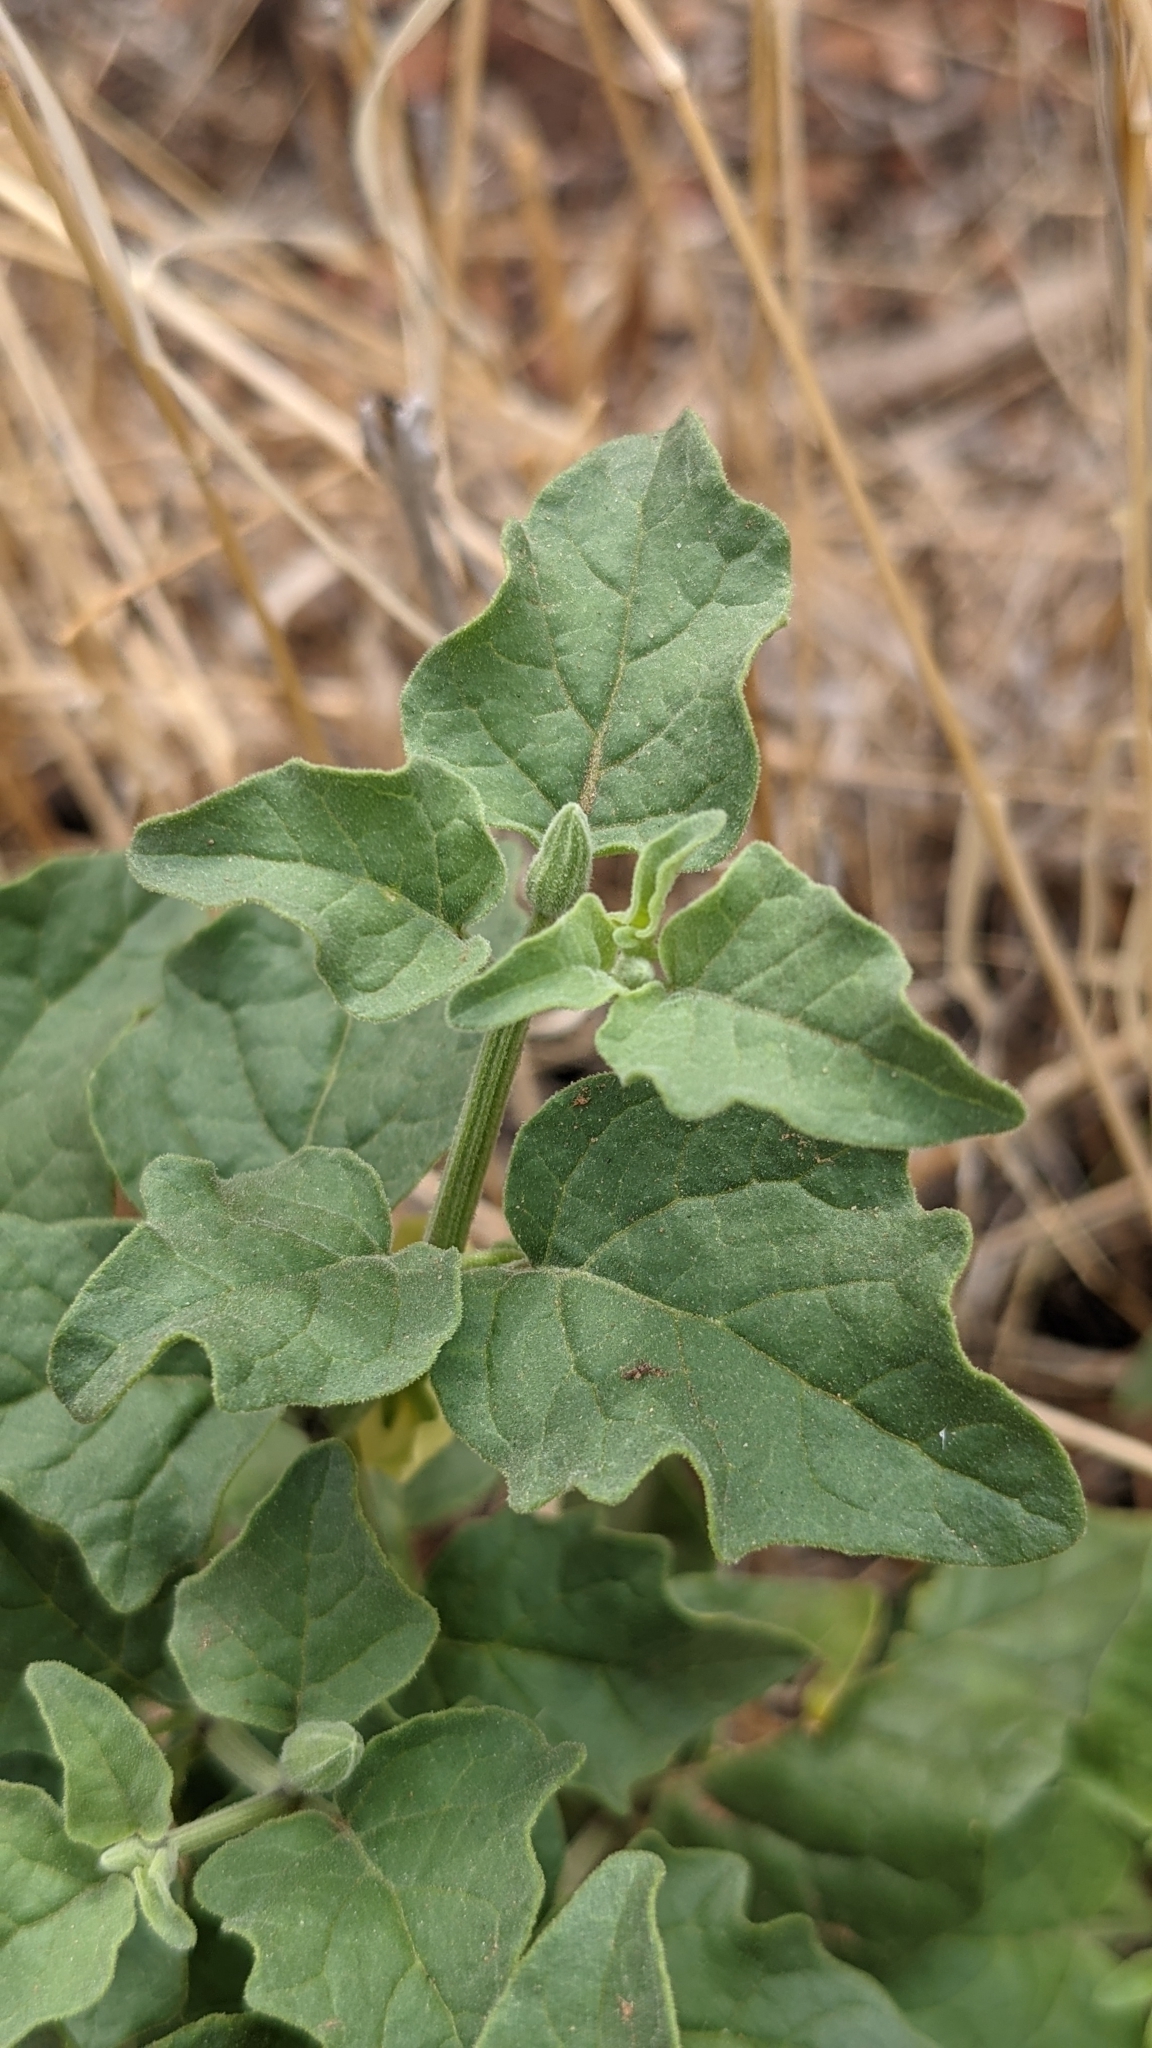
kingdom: Plantae
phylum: Tracheophyta
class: Magnoliopsida
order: Solanales
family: Solanaceae
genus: Physalis
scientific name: Physalis hederifolia
